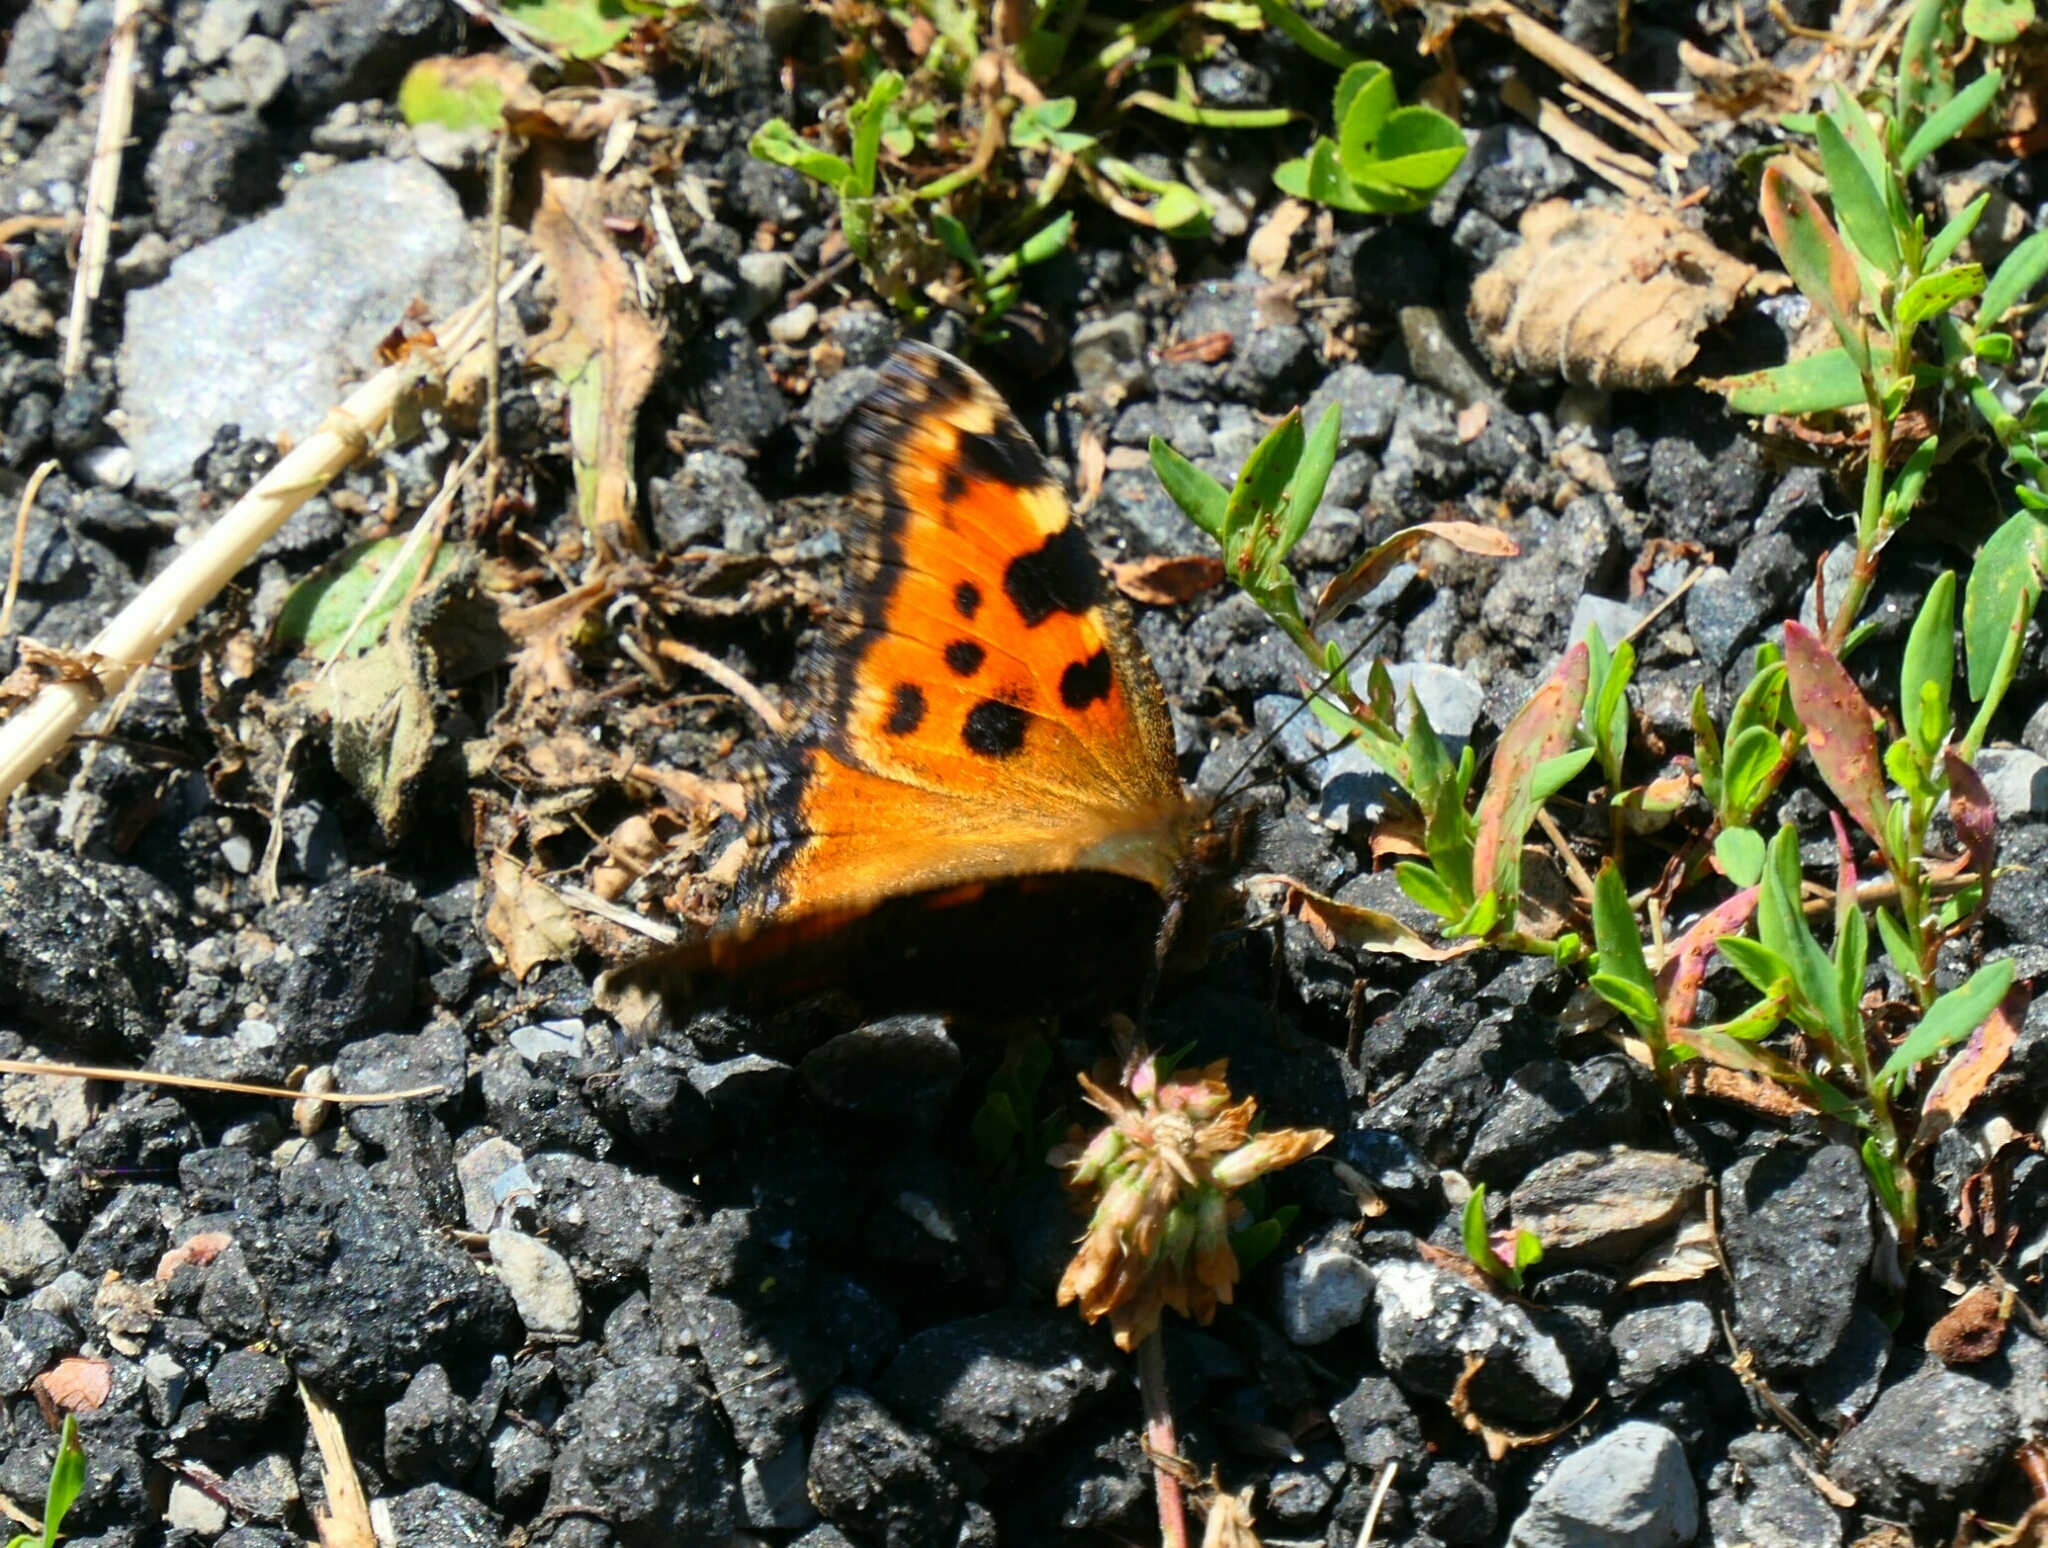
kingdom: Animalia
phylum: Arthropoda
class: Insecta
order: Lepidoptera
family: Nymphalidae
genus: Nymphalis
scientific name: Nymphalis polychloros
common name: Large tortoiseshell
